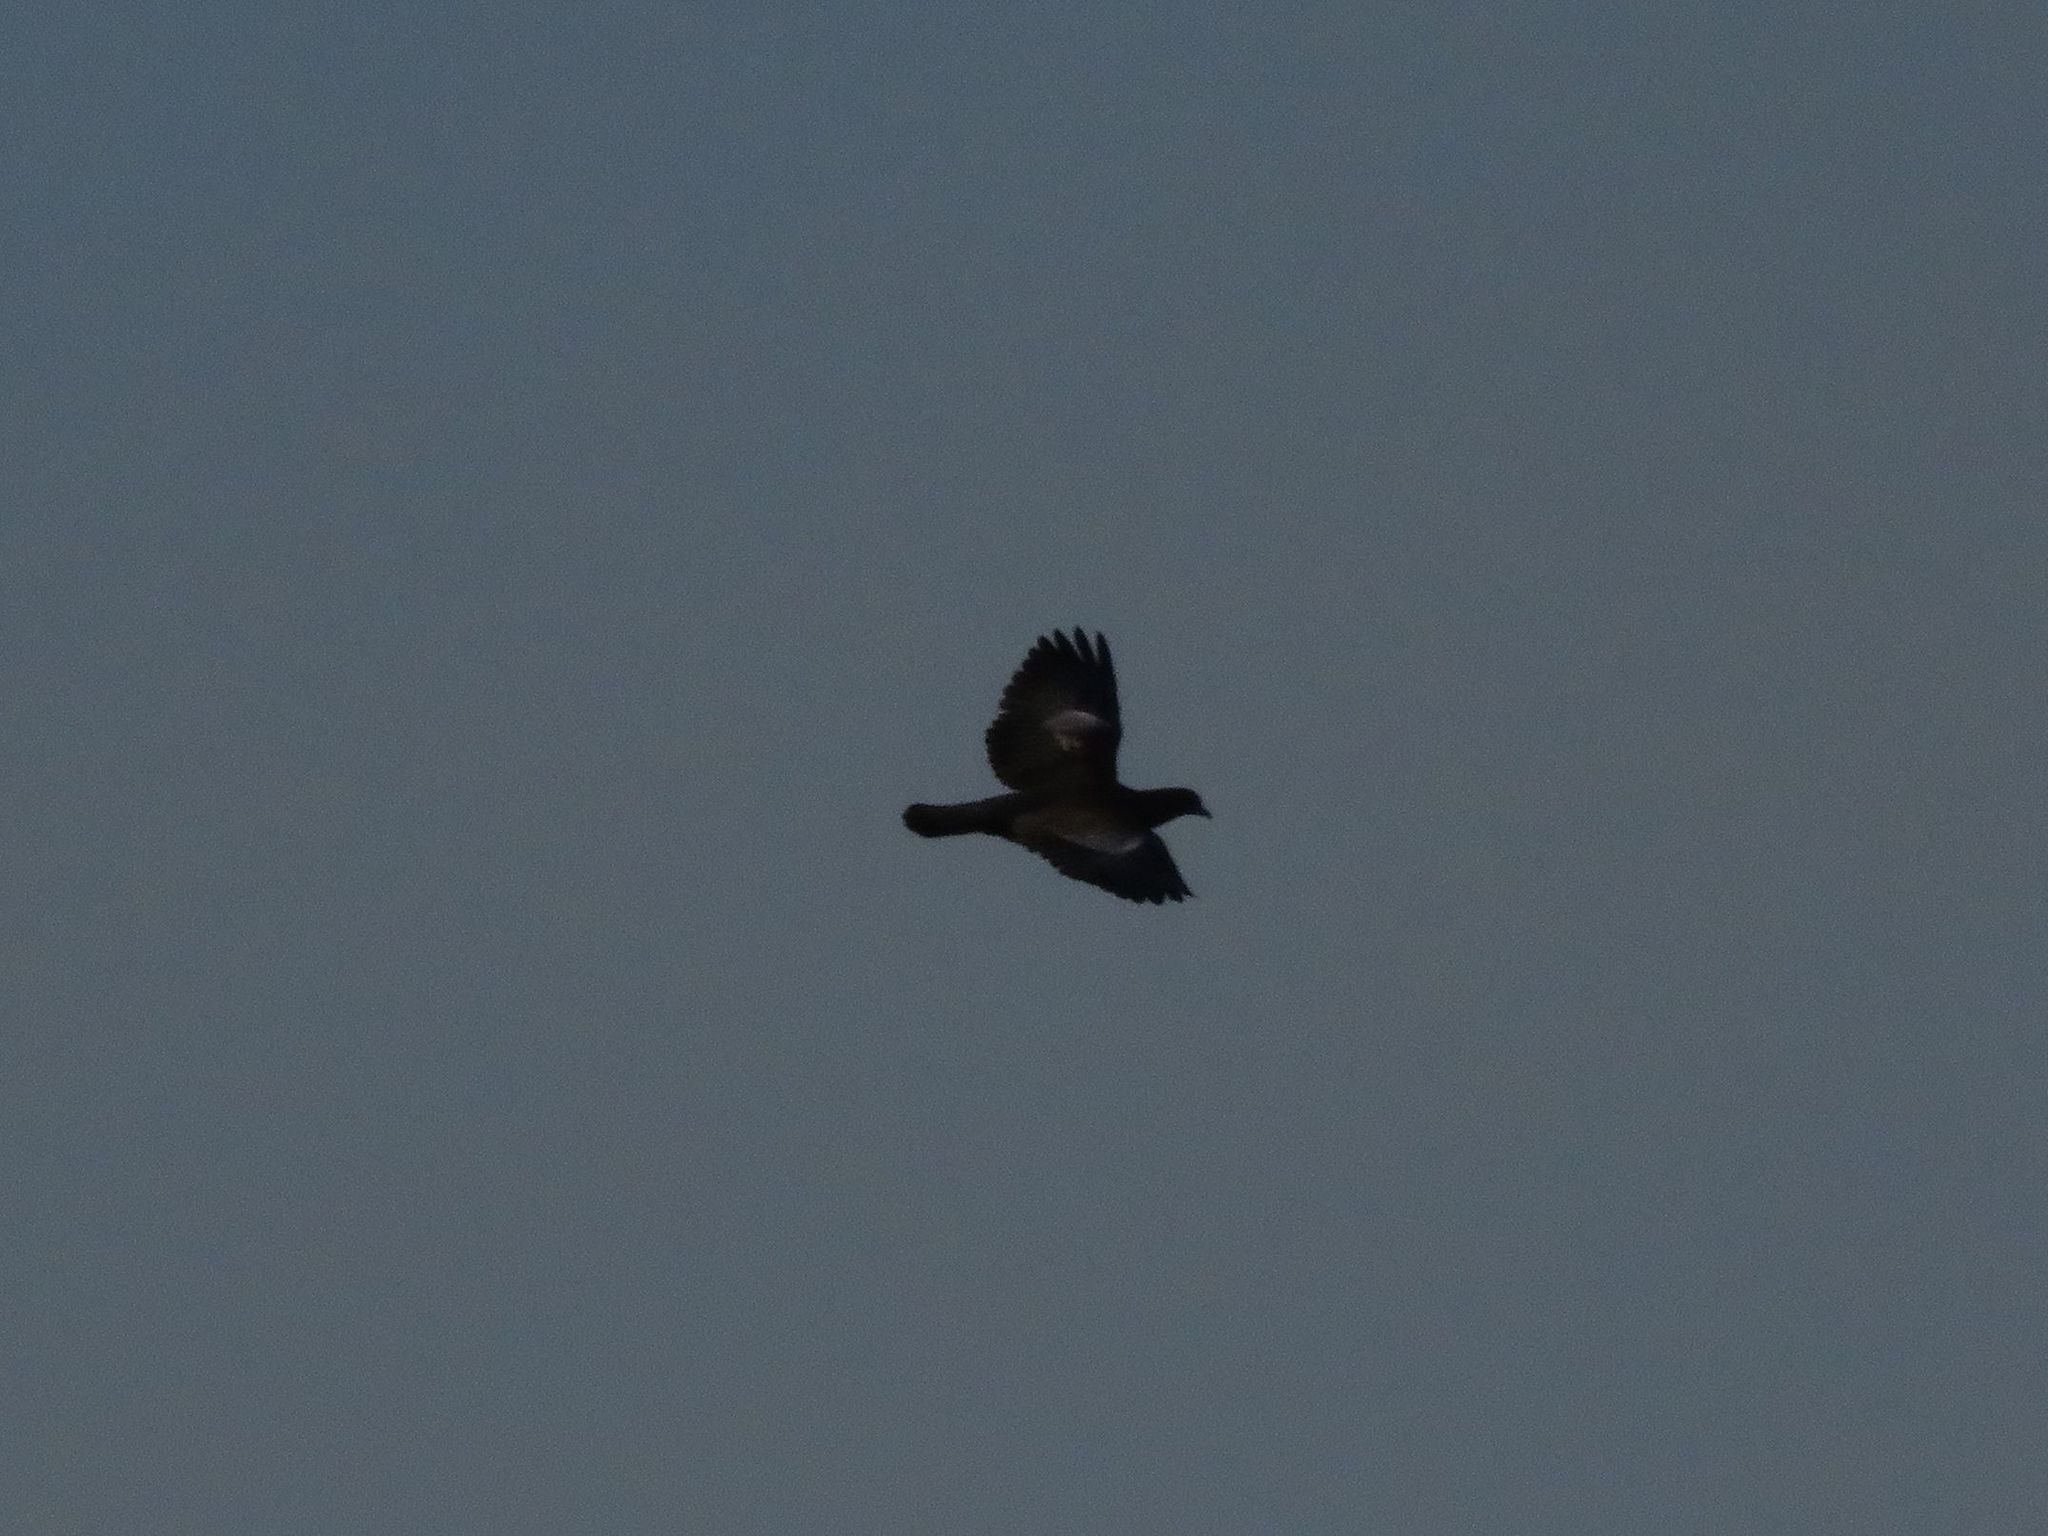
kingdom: Animalia
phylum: Chordata
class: Aves
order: Columbiformes
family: Columbidae
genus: Patagioenas
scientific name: Patagioenas picazuro
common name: Picazuro pigeon
